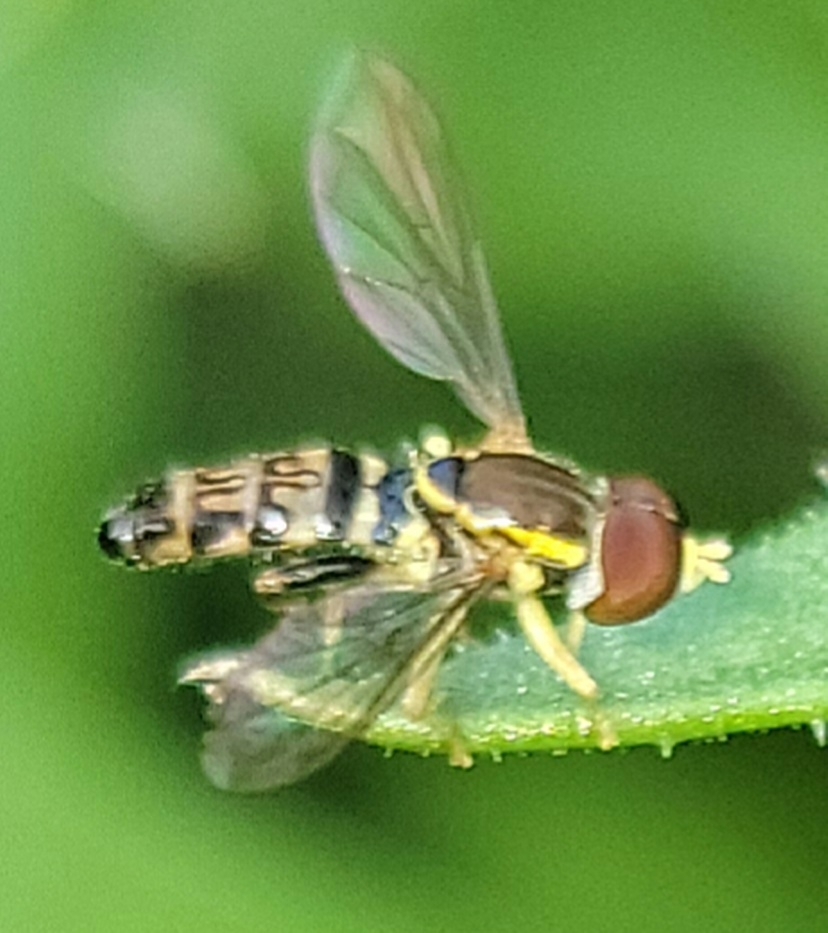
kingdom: Animalia
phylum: Arthropoda
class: Insecta
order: Diptera
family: Syrphidae
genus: Toxomerus
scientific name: Toxomerus geminatus
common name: Eastern calligrapher
